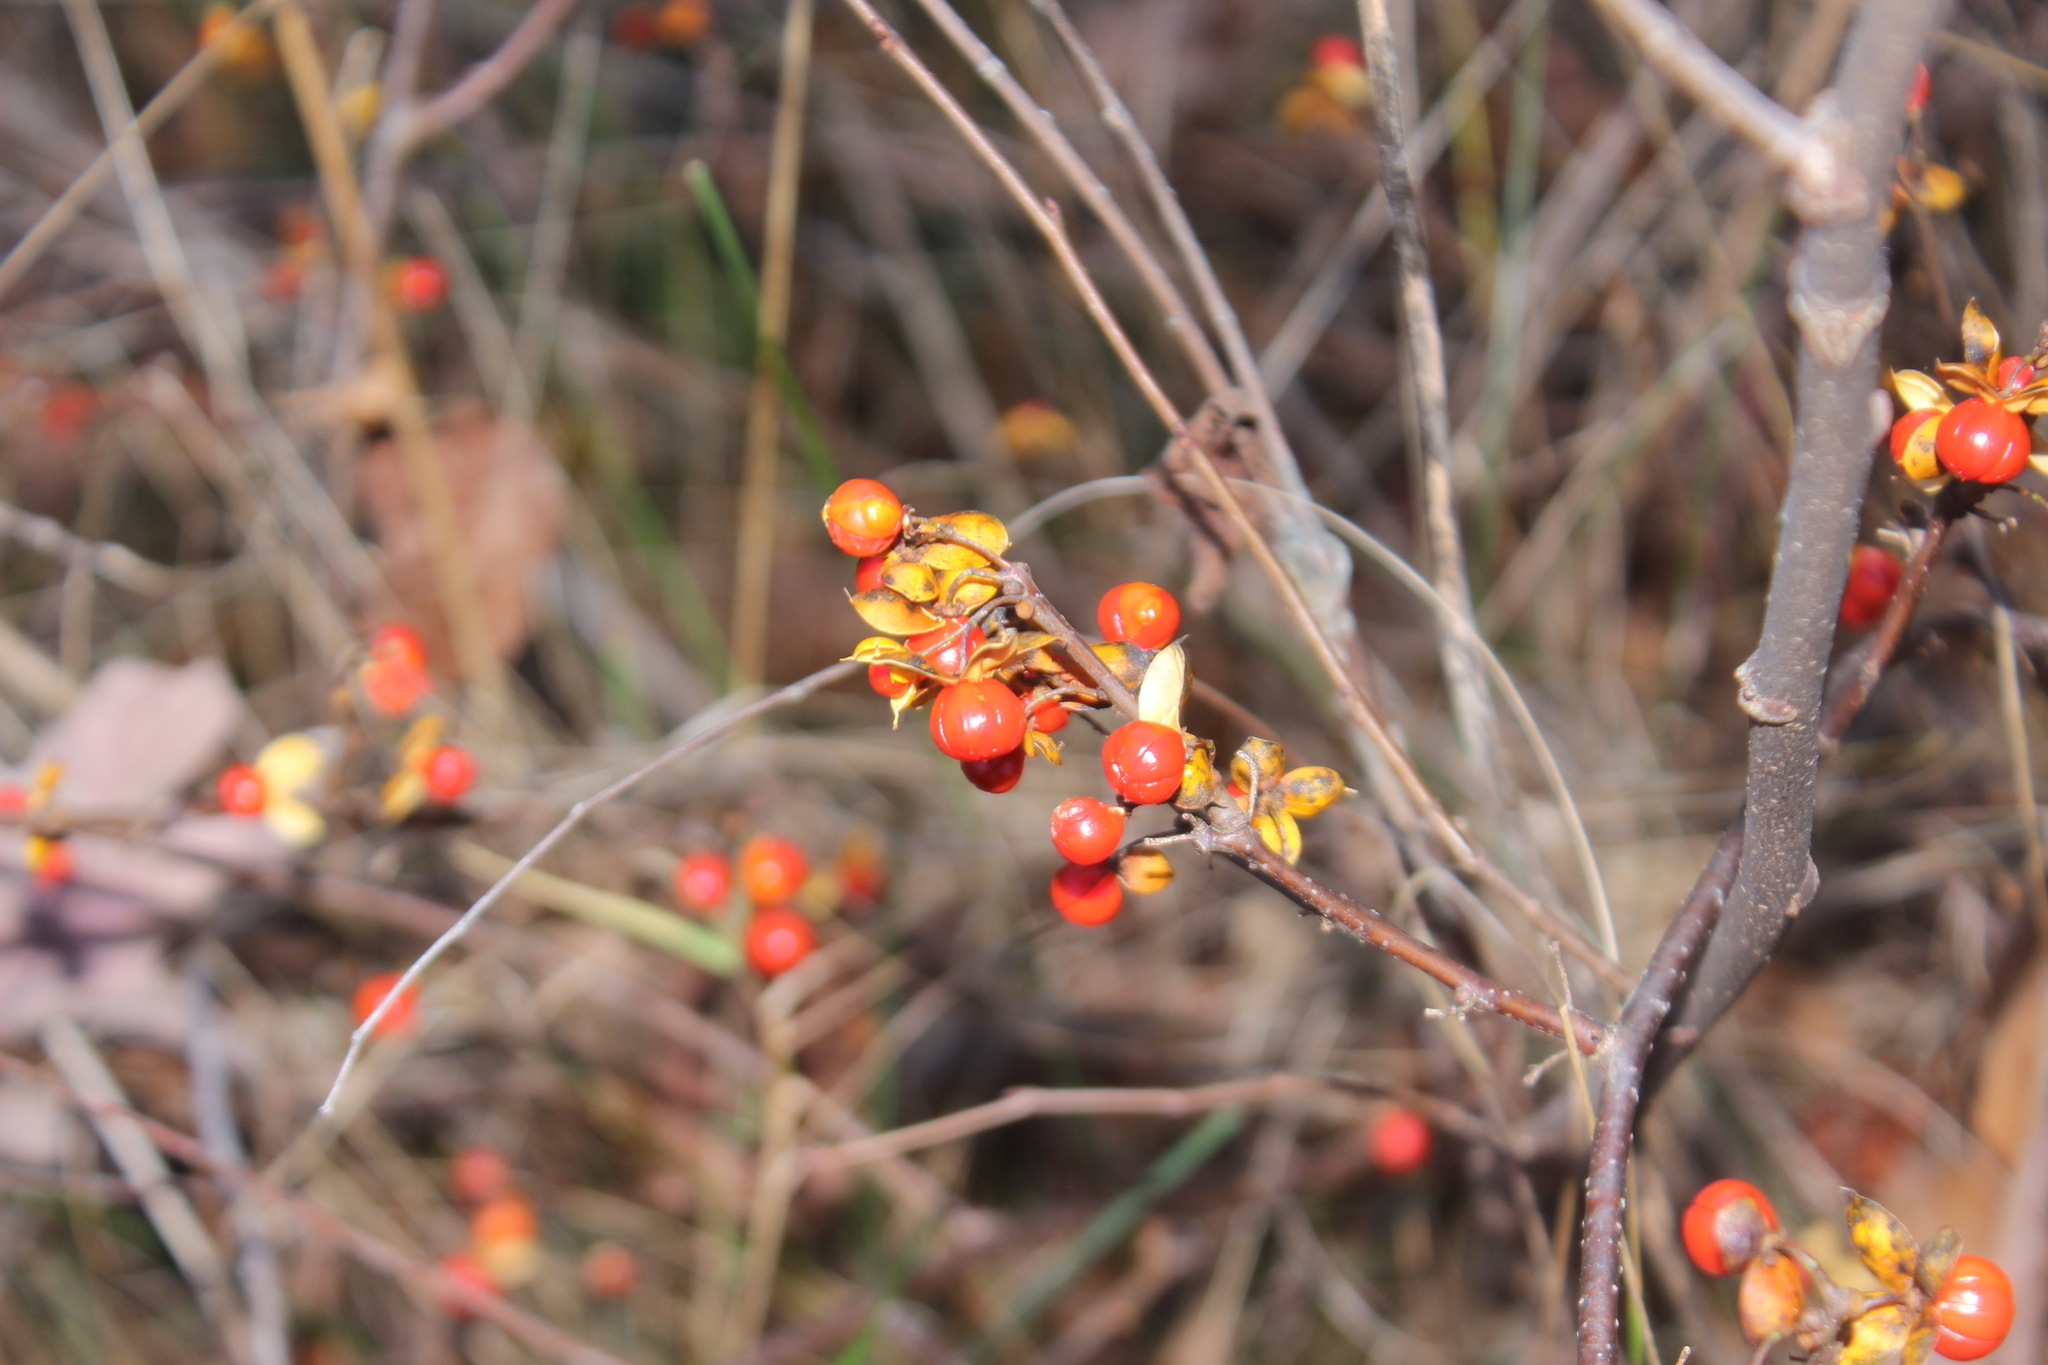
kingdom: Plantae
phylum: Tracheophyta
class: Magnoliopsida
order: Celastrales
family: Celastraceae
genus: Celastrus
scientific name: Celastrus orbiculatus
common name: Oriental bittersweet
